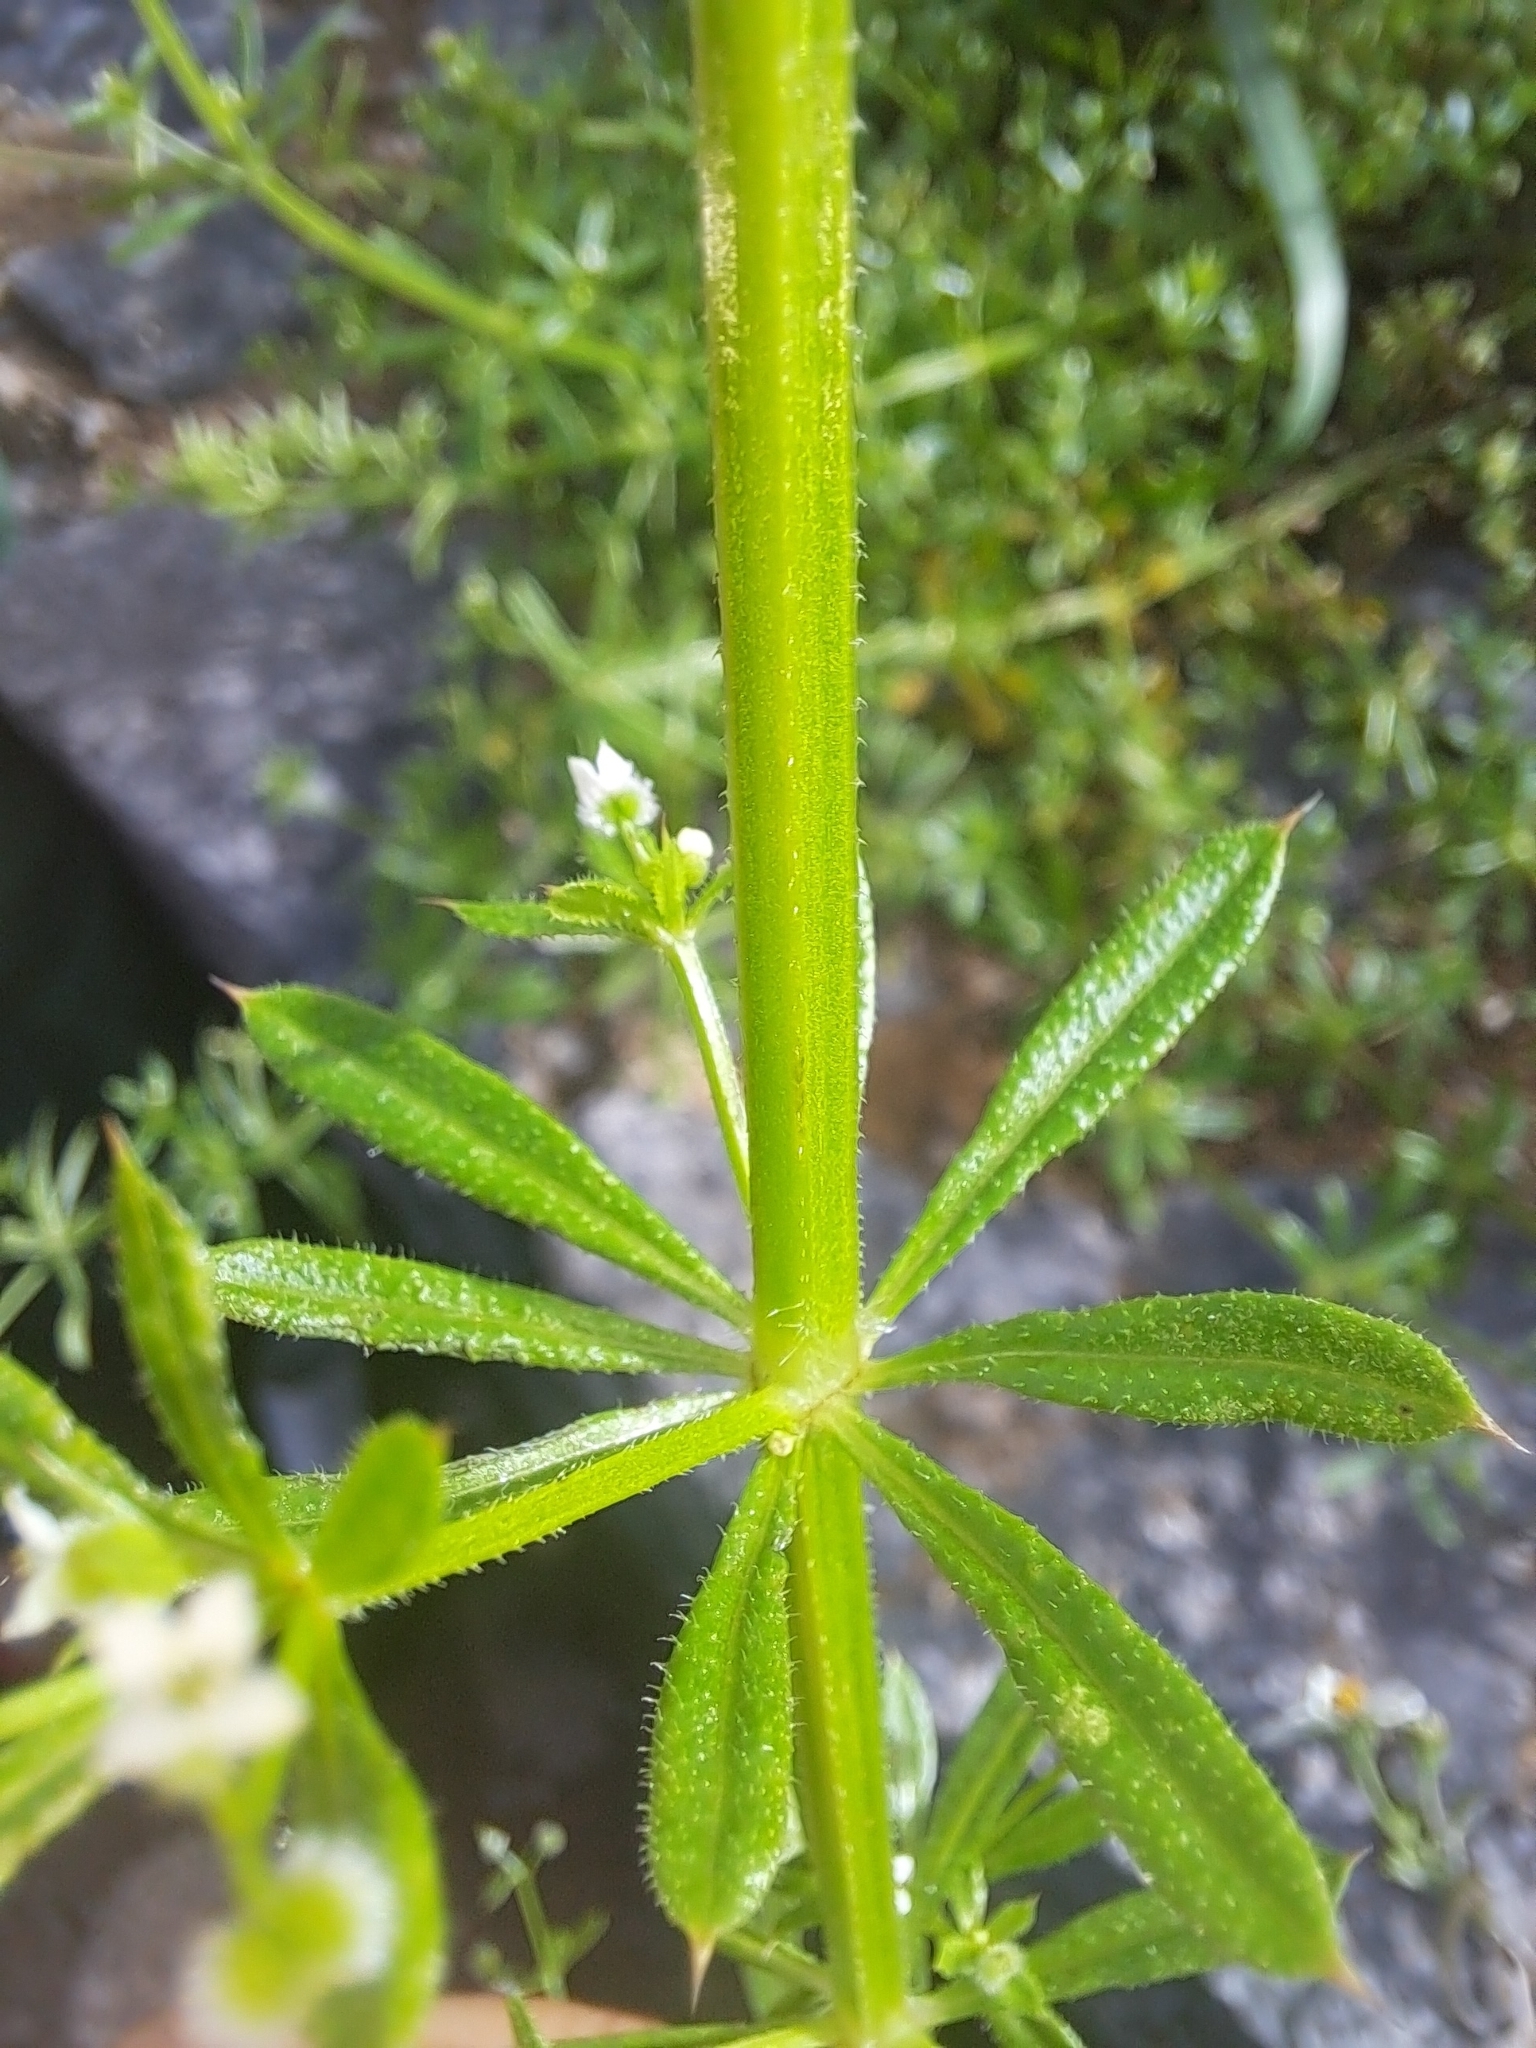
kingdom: Plantae
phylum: Tracheophyta
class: Magnoliopsida
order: Gentianales
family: Rubiaceae
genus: Galium
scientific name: Galium aparine
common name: Cleavers
